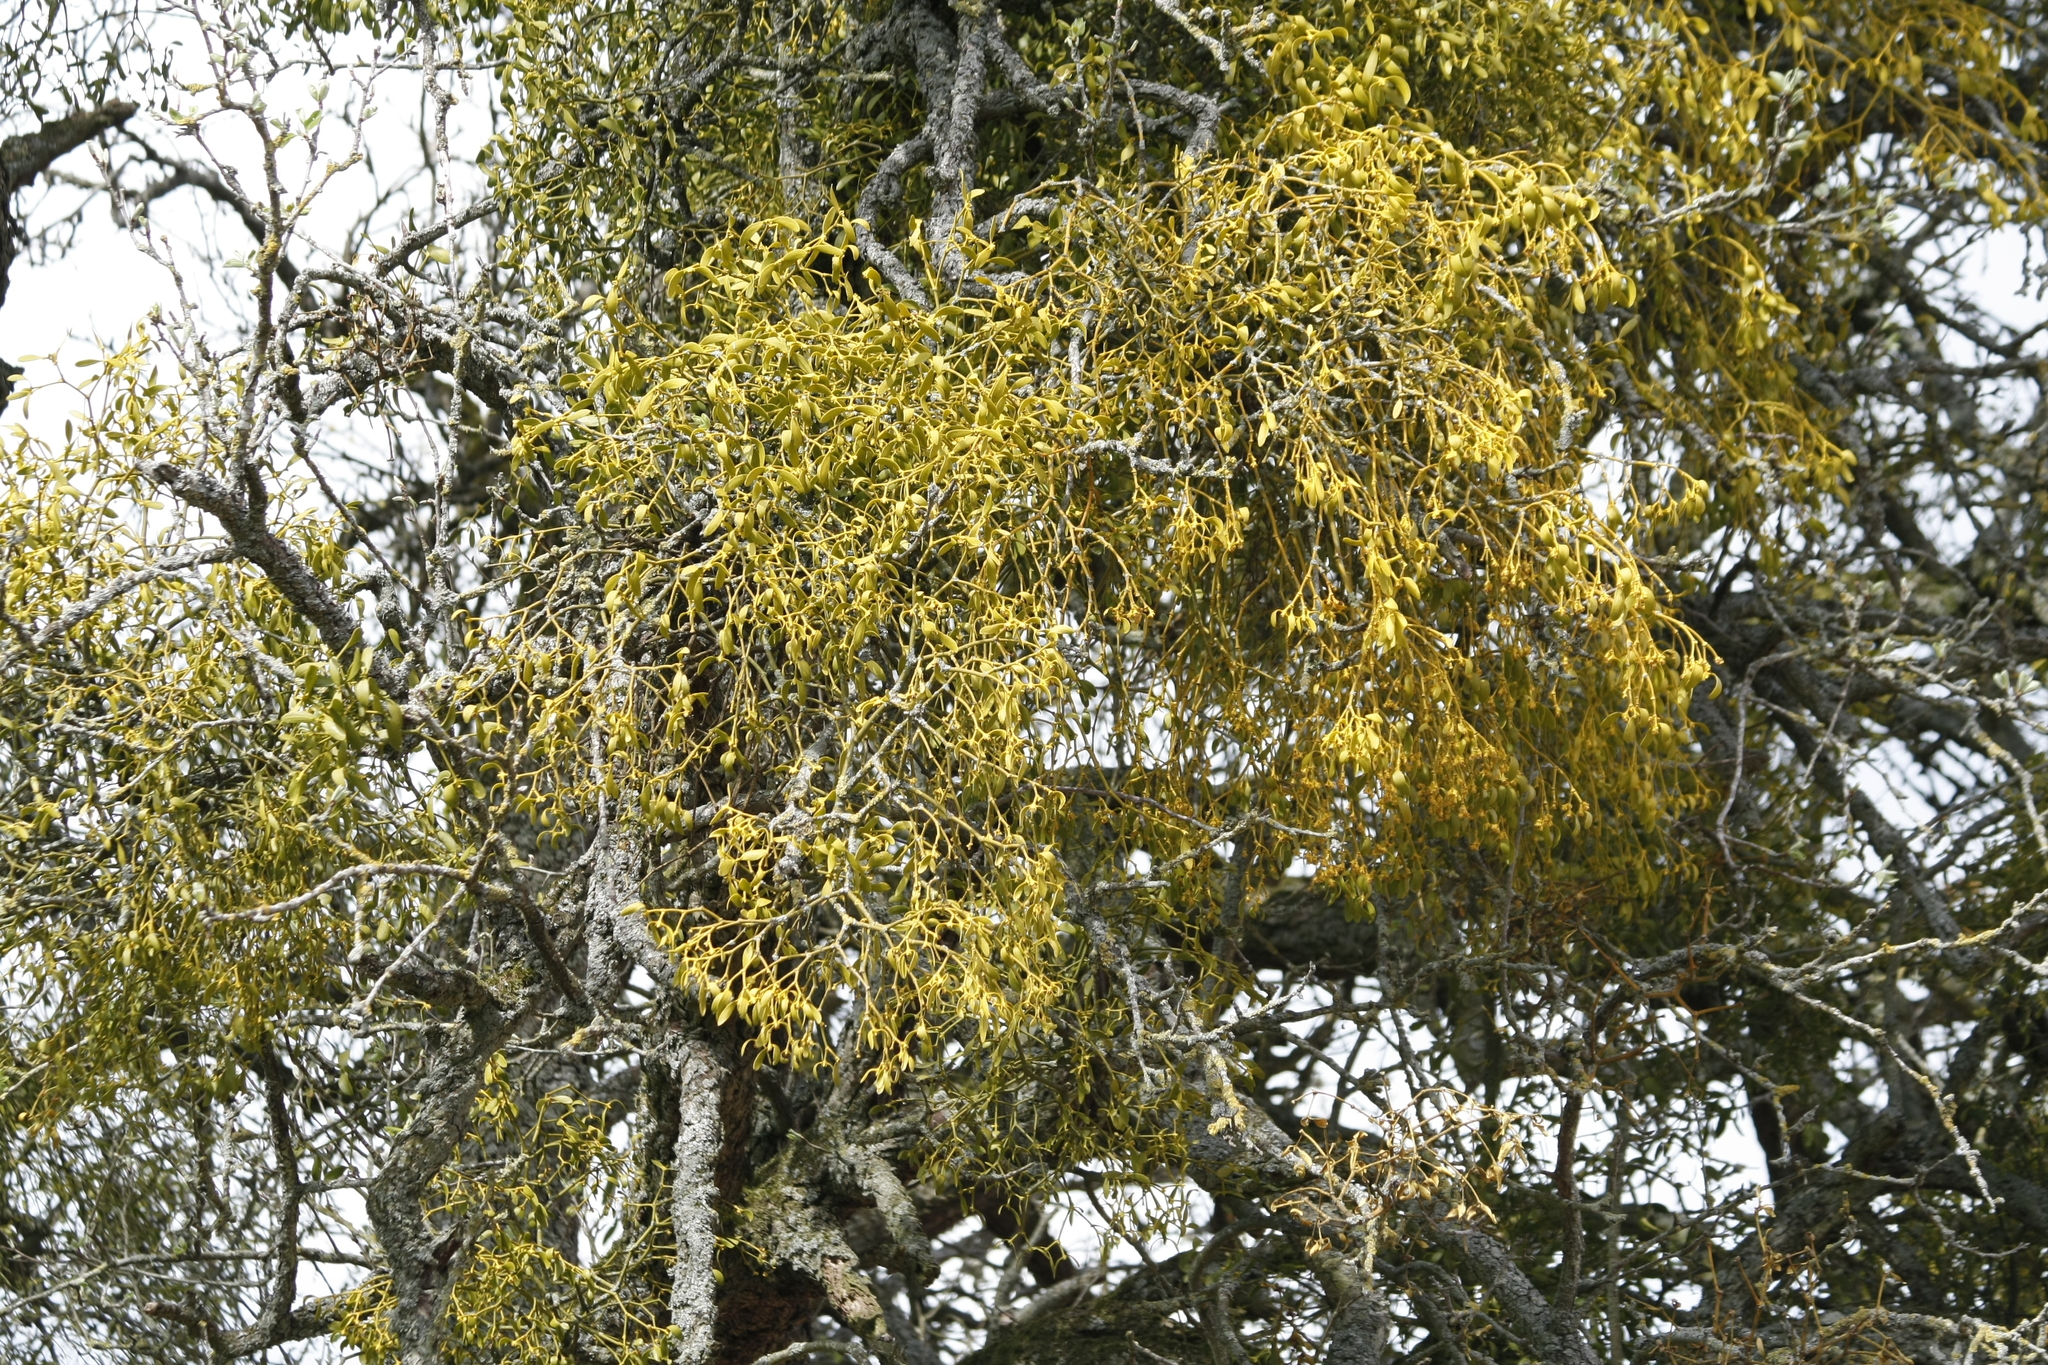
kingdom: Plantae
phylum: Tracheophyta
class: Magnoliopsida
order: Santalales
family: Viscaceae
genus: Viscum
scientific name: Viscum album
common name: Mistletoe
